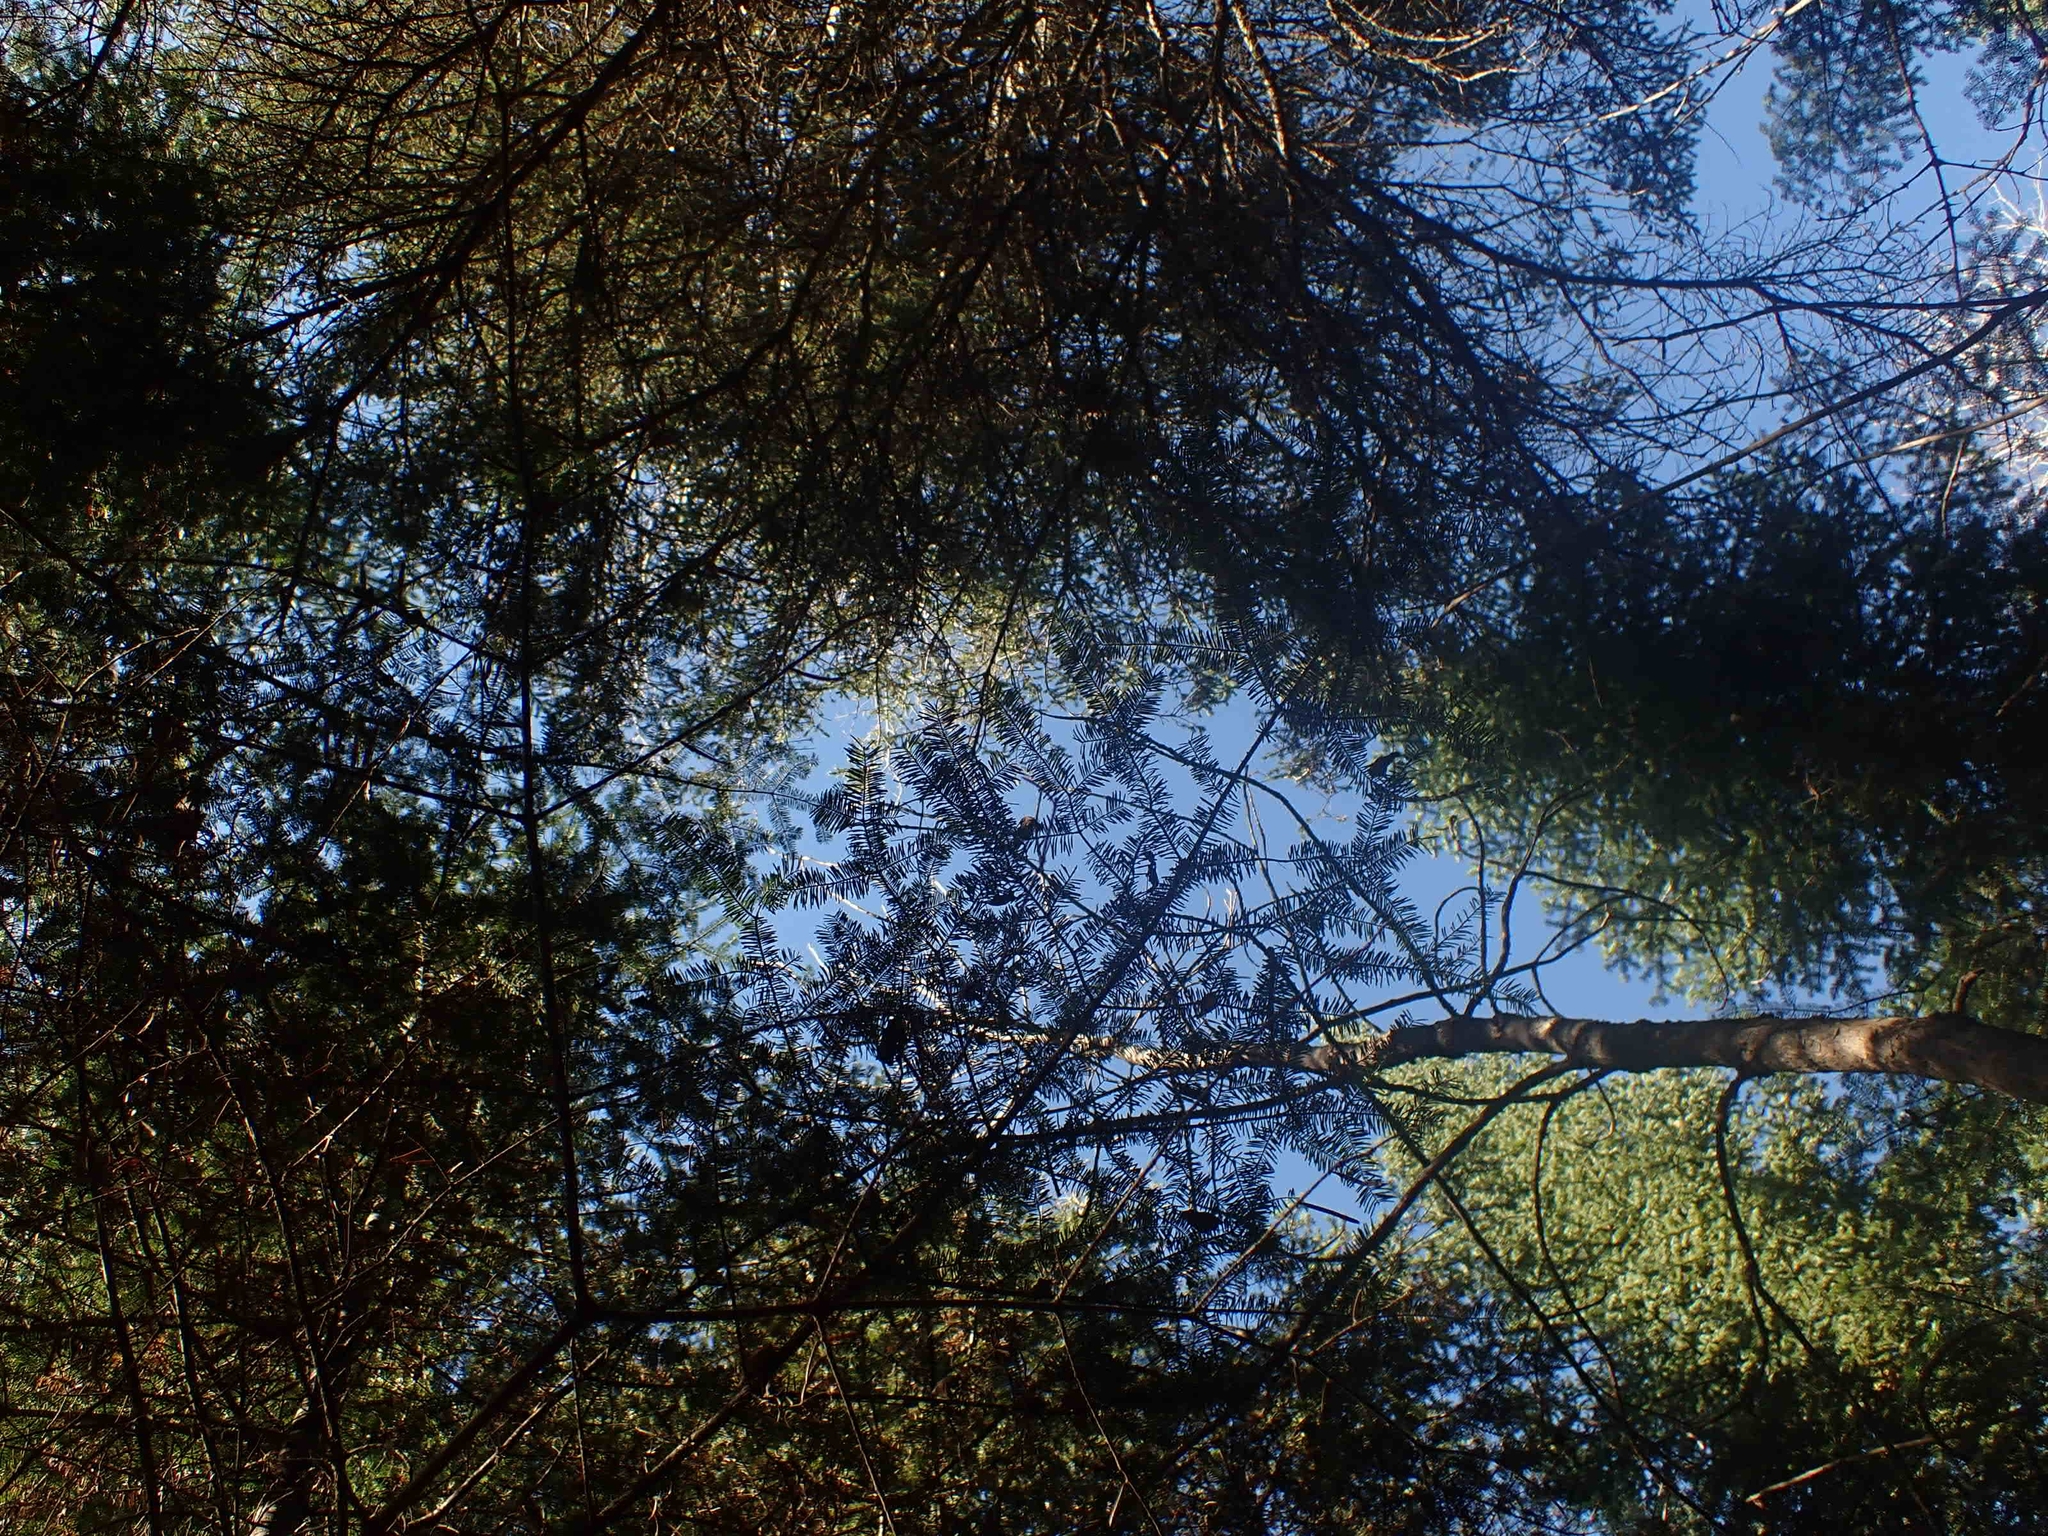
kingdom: Plantae
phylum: Tracheophyta
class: Pinopsida
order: Pinales
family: Pinaceae
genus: Abies
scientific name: Abies balsamea
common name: Balsam fir
